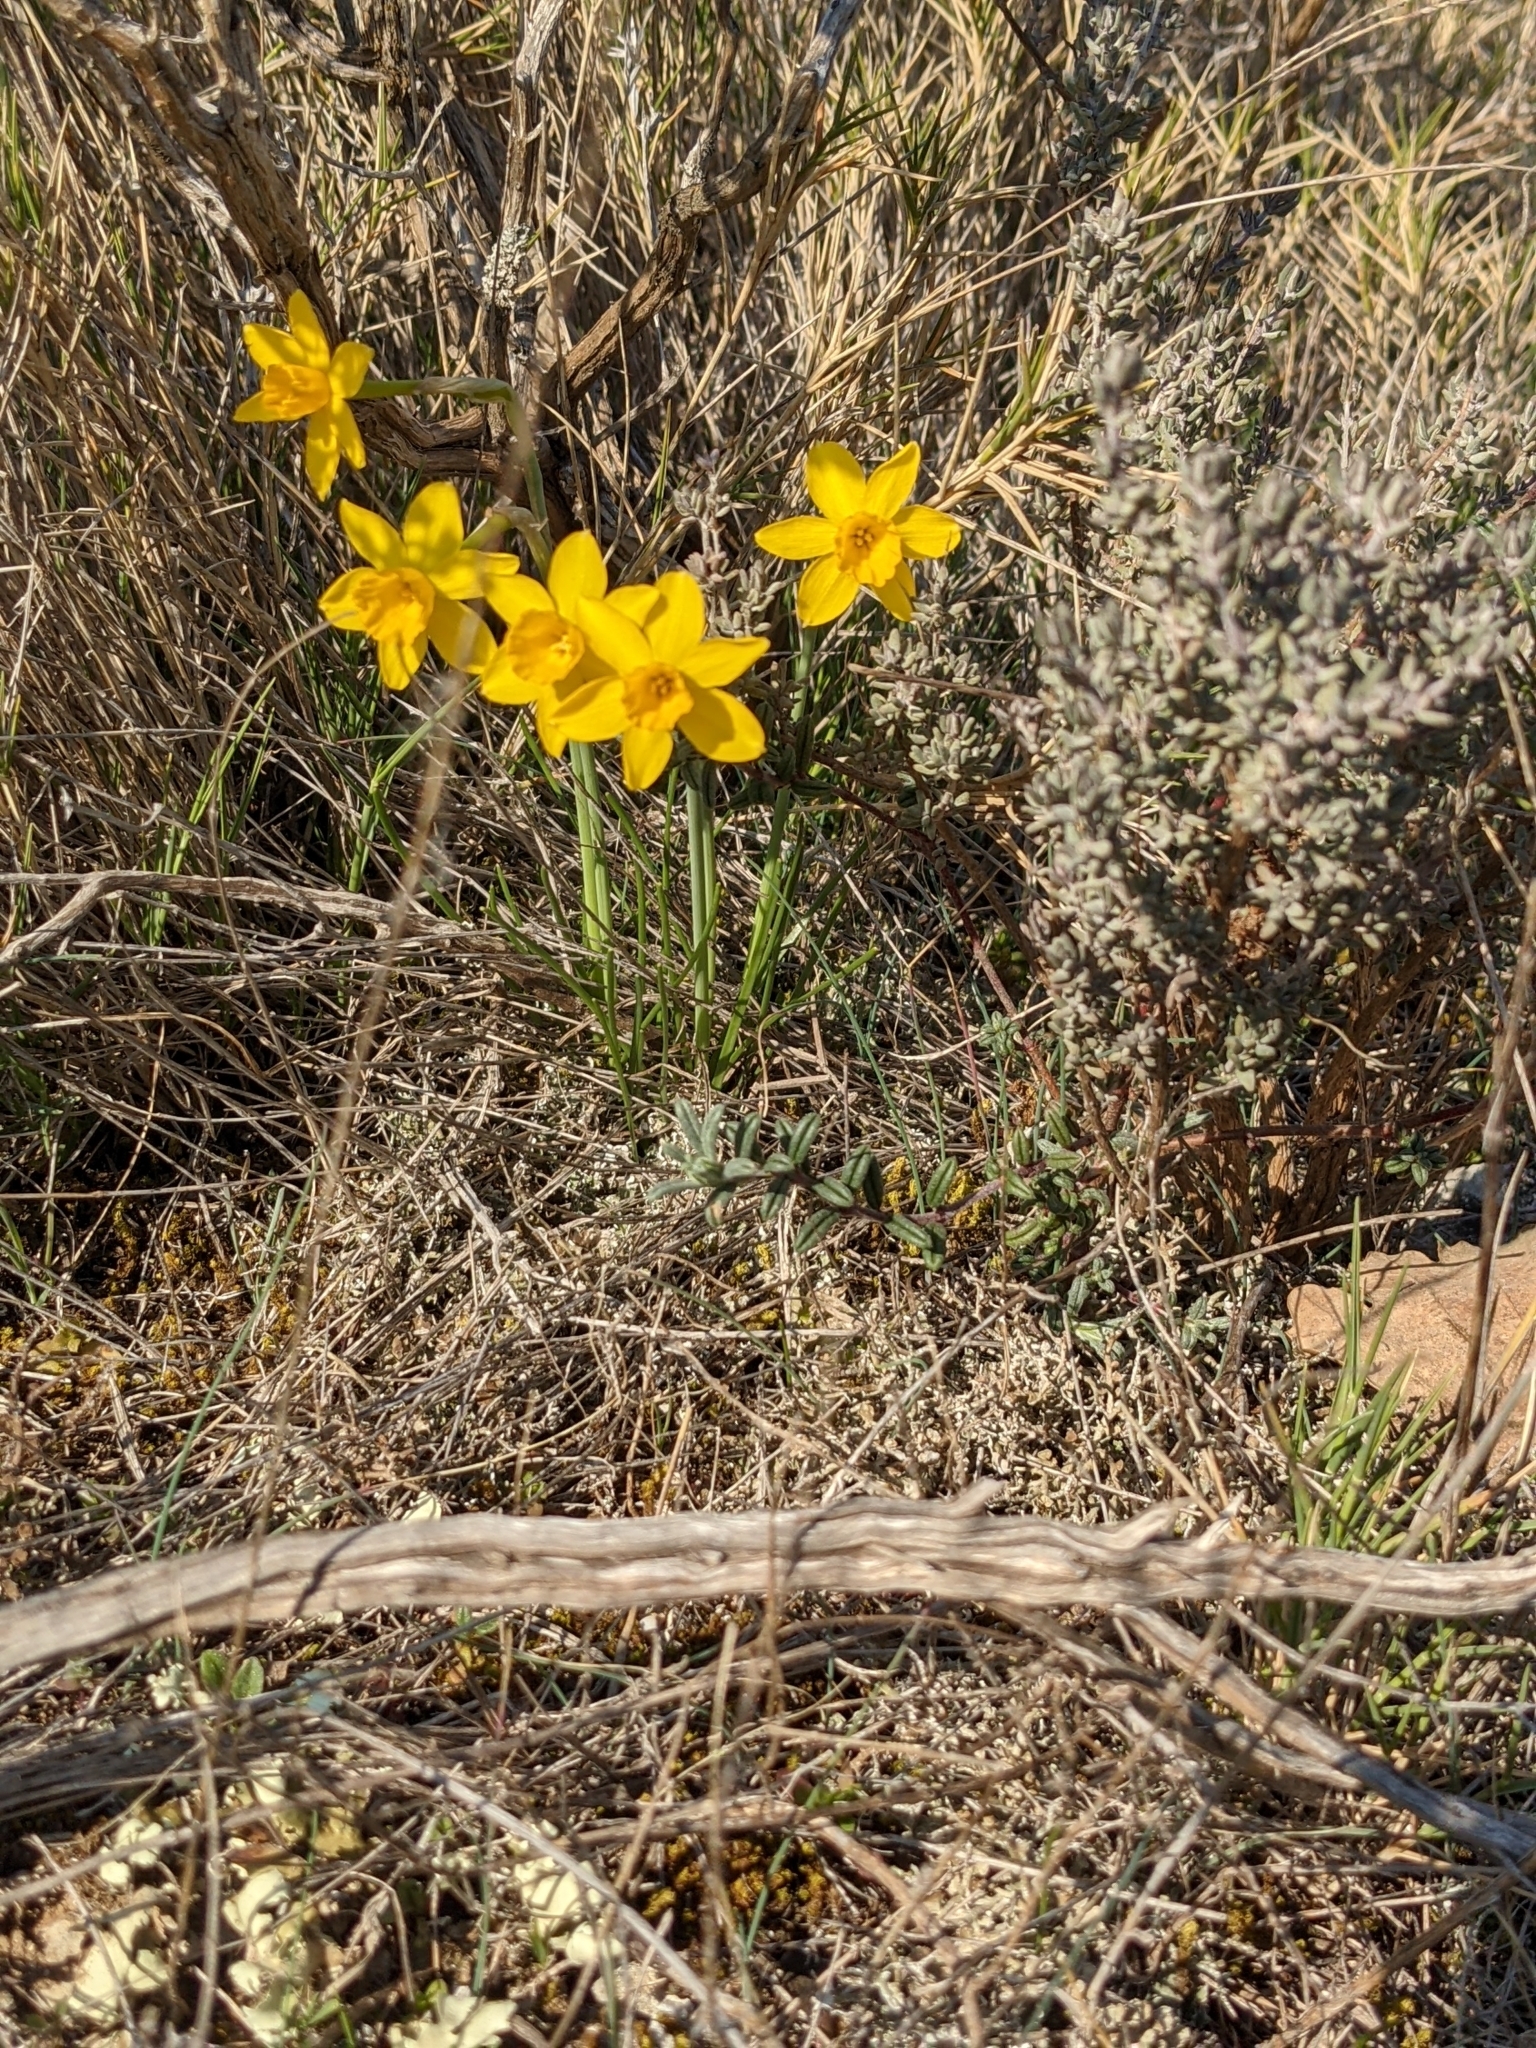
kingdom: Plantae
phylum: Tracheophyta
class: Liliopsida
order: Asparagales
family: Amaryllidaceae
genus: Narcissus
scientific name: Narcissus assoanus
